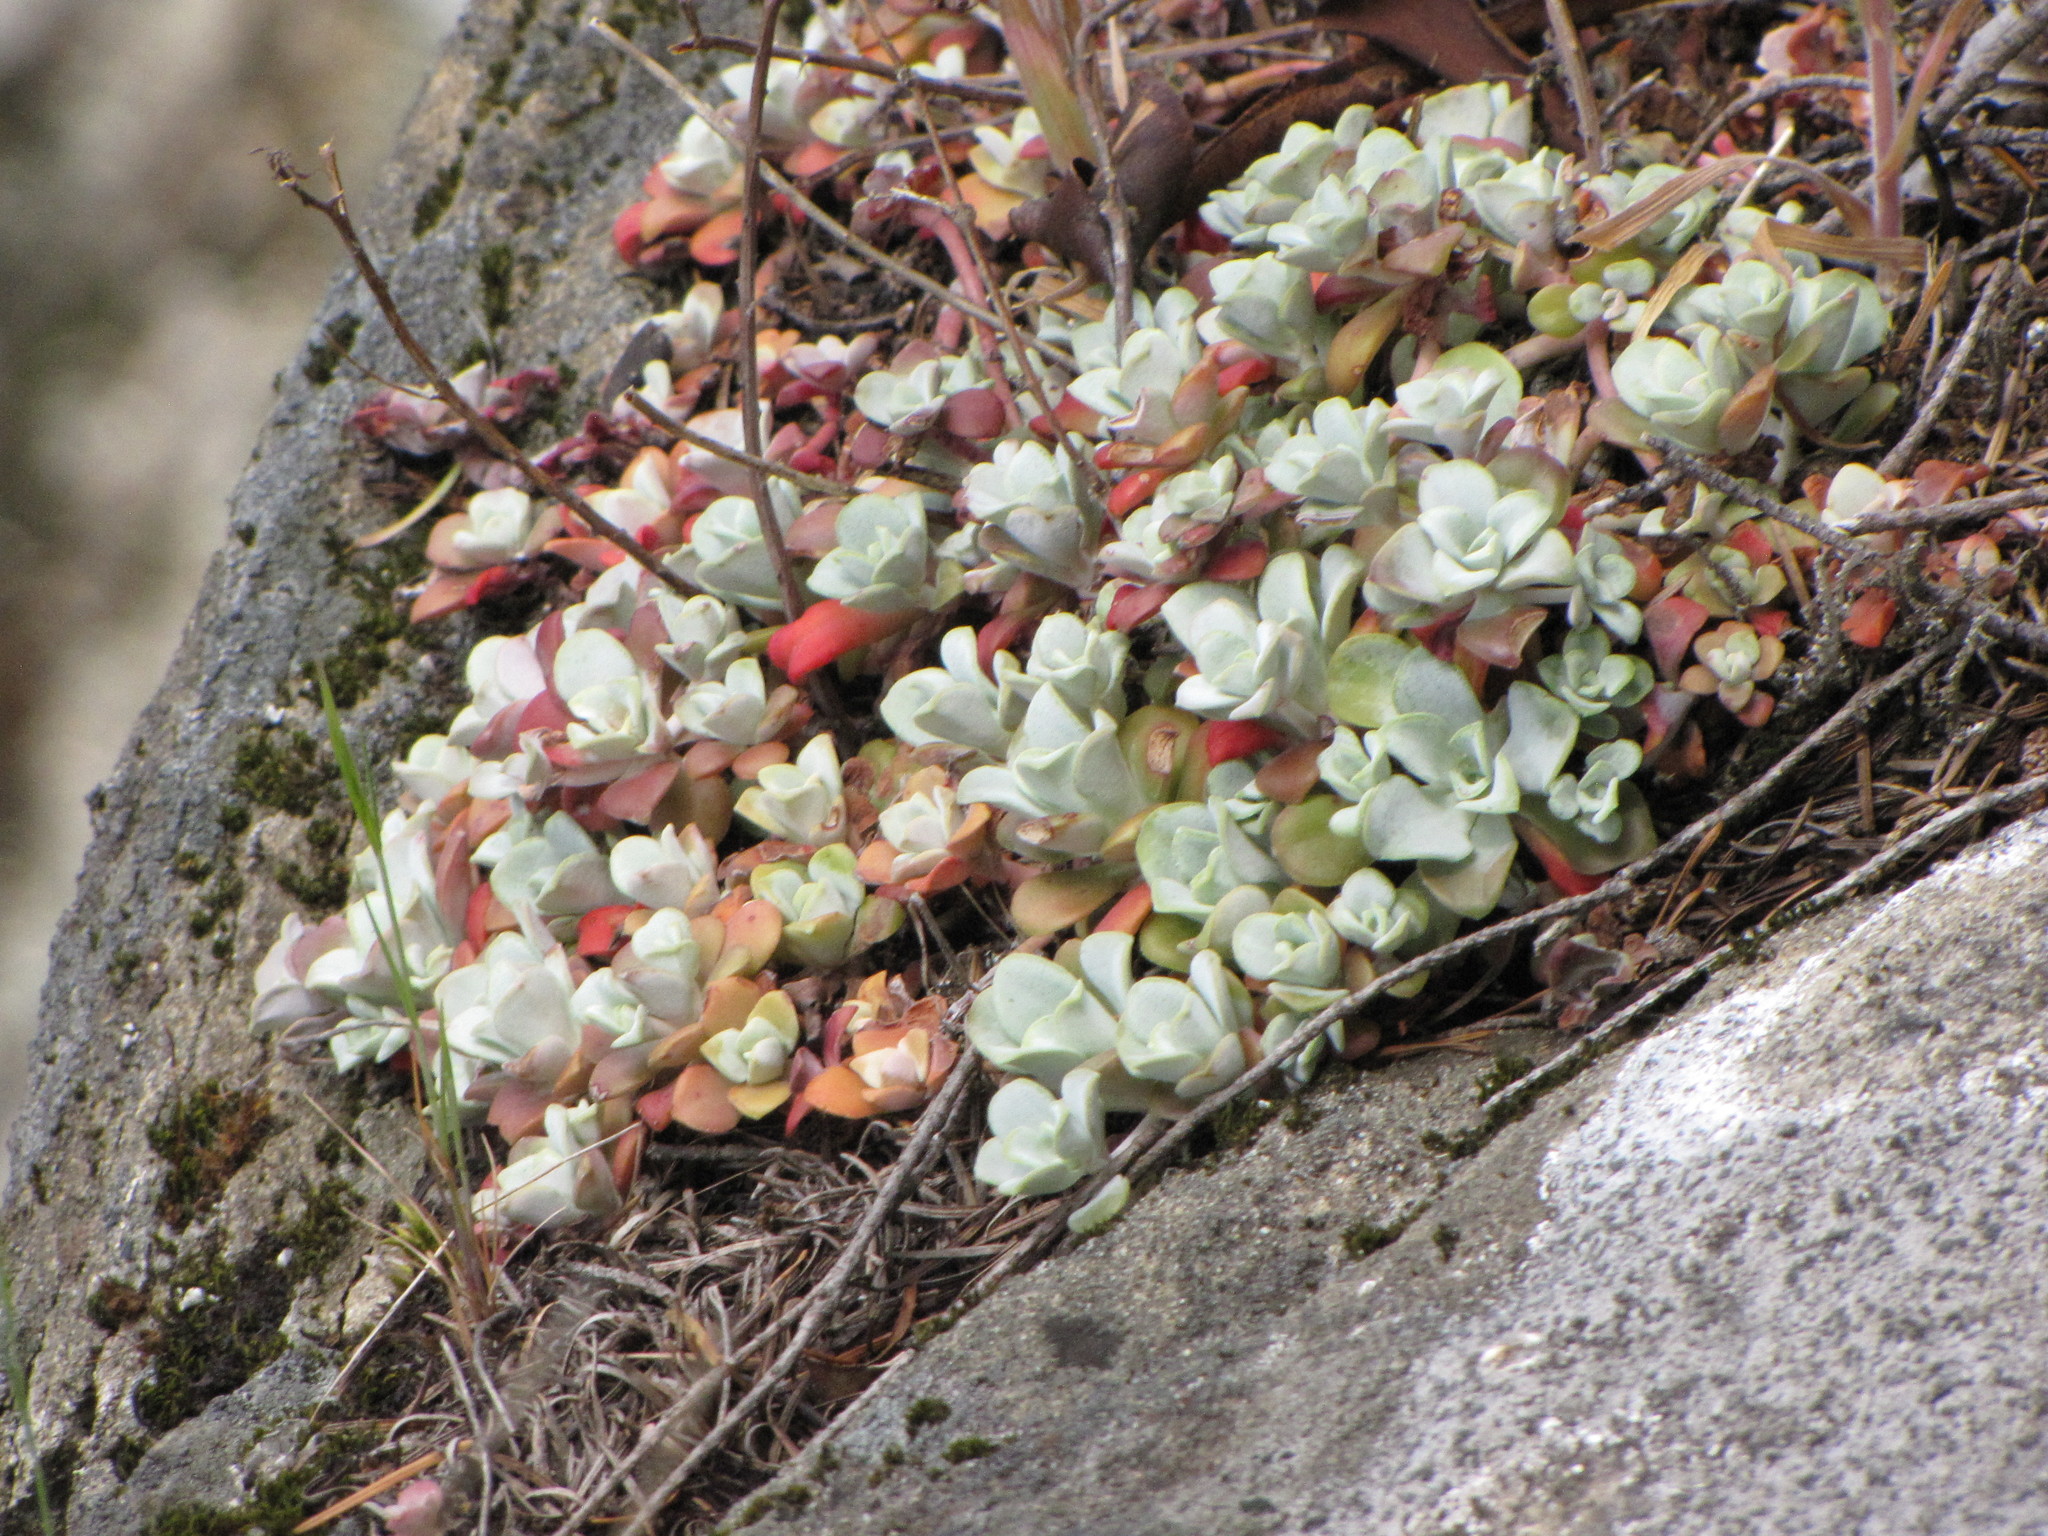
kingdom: Plantae
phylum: Tracheophyta
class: Magnoliopsida
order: Saxifragales
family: Crassulaceae
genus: Sedum
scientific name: Sedum spathulifolium
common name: Colorado stonecrop
